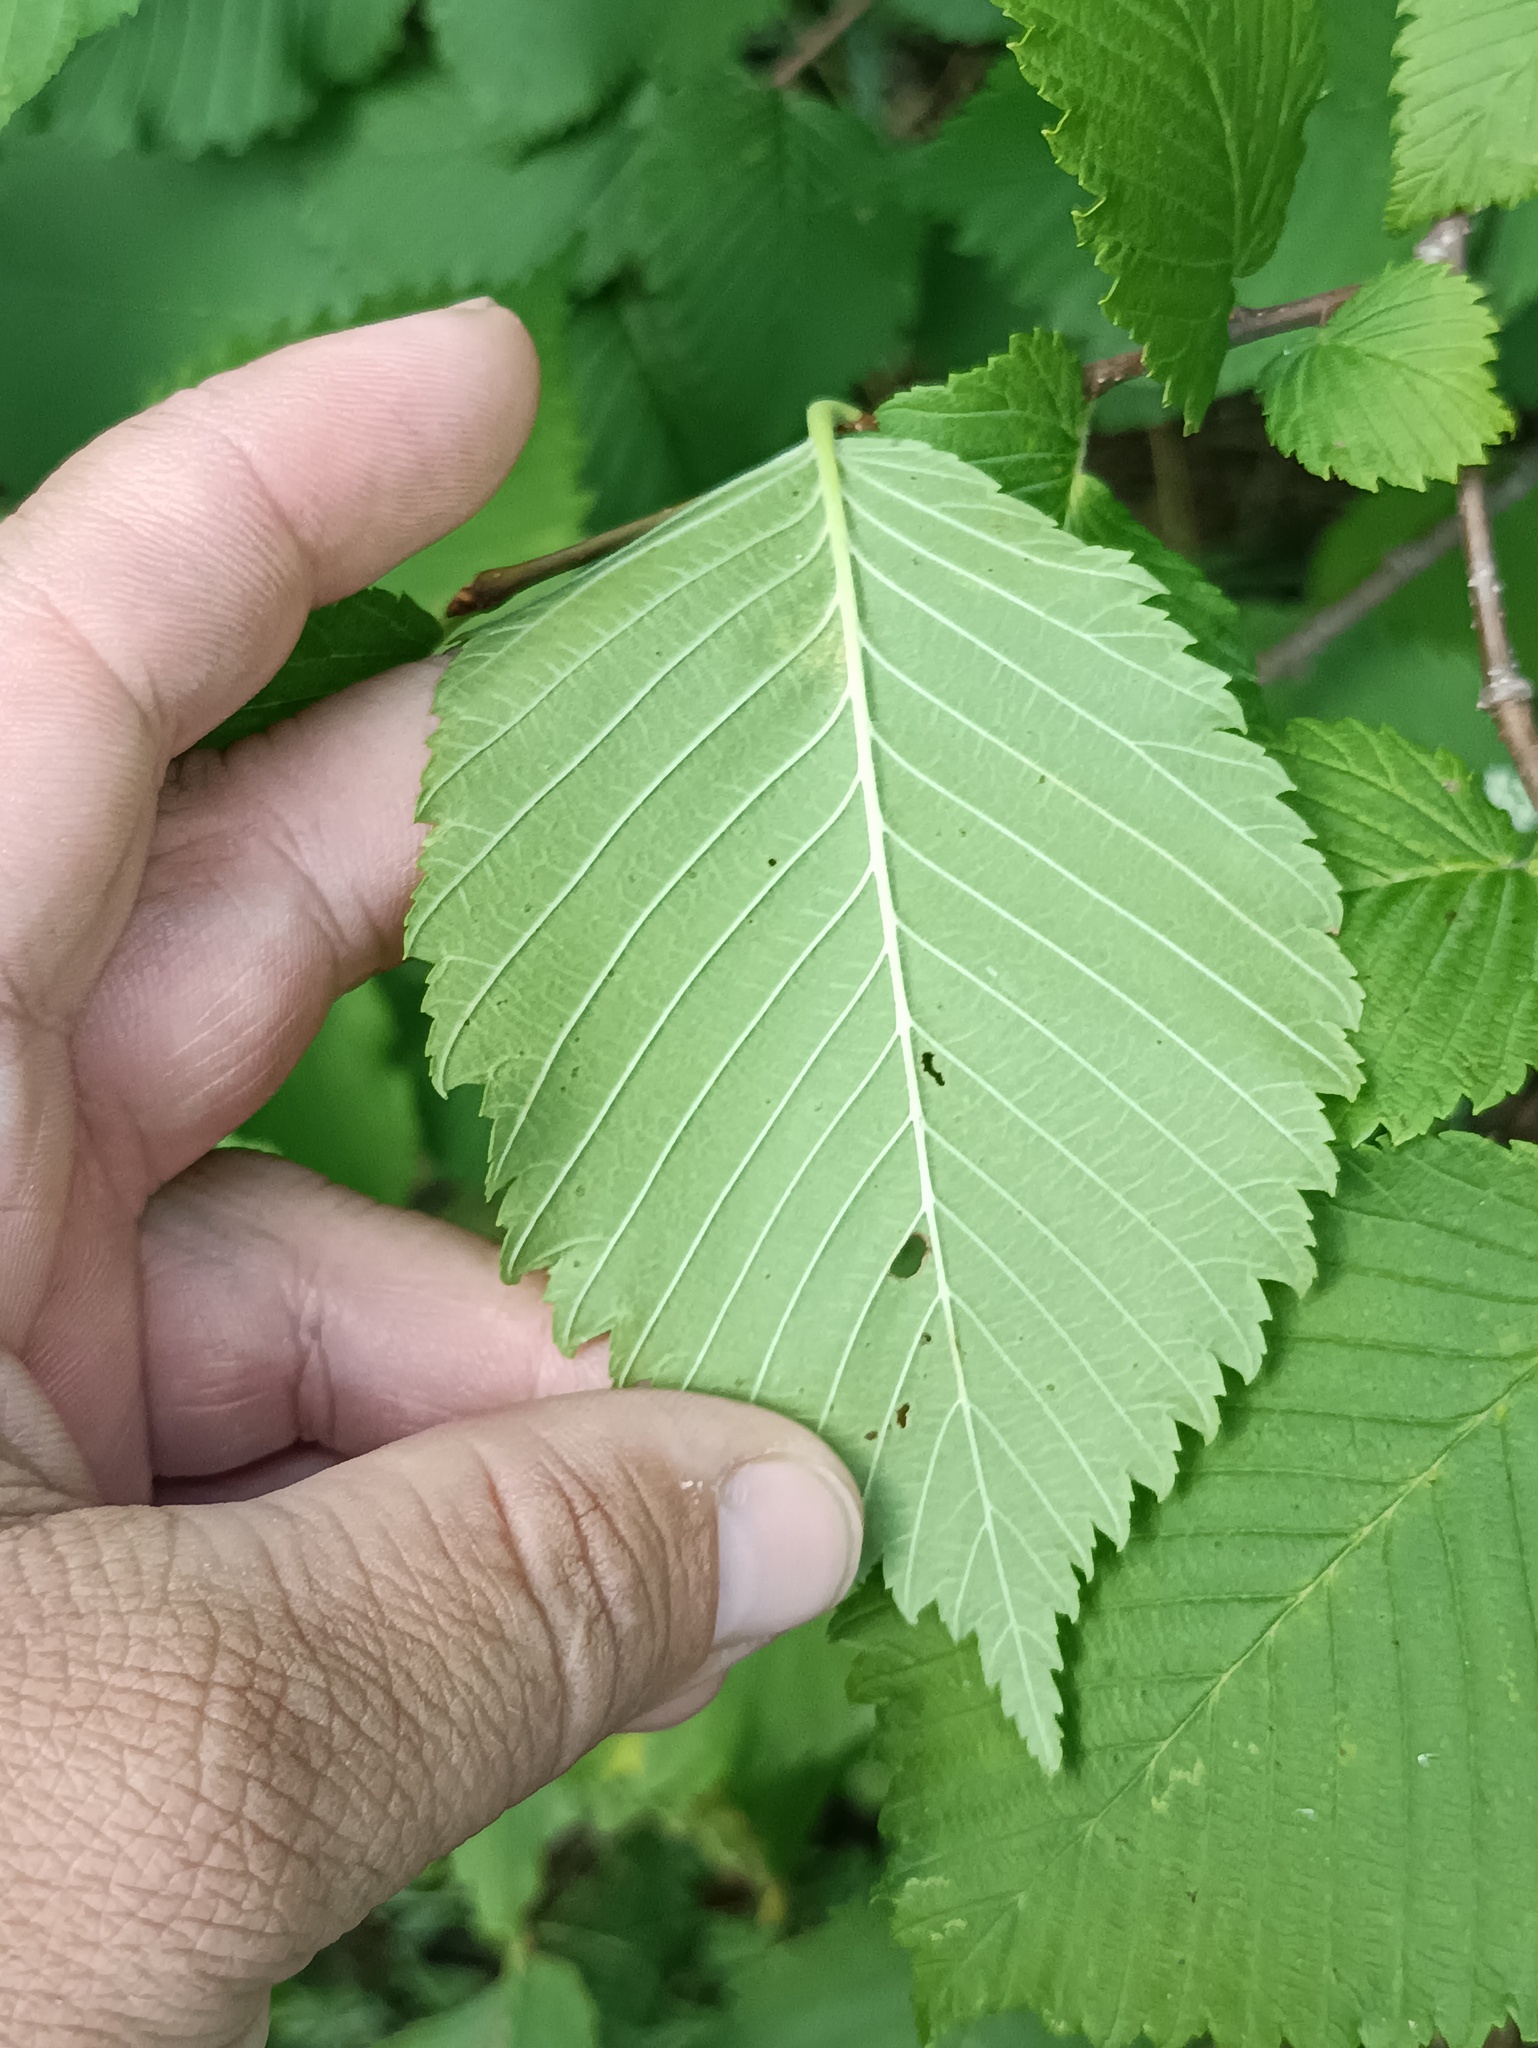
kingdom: Plantae
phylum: Tracheophyta
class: Magnoliopsida
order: Rosales
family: Ulmaceae
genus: Ulmus
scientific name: Ulmus laevis
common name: European white-elm
